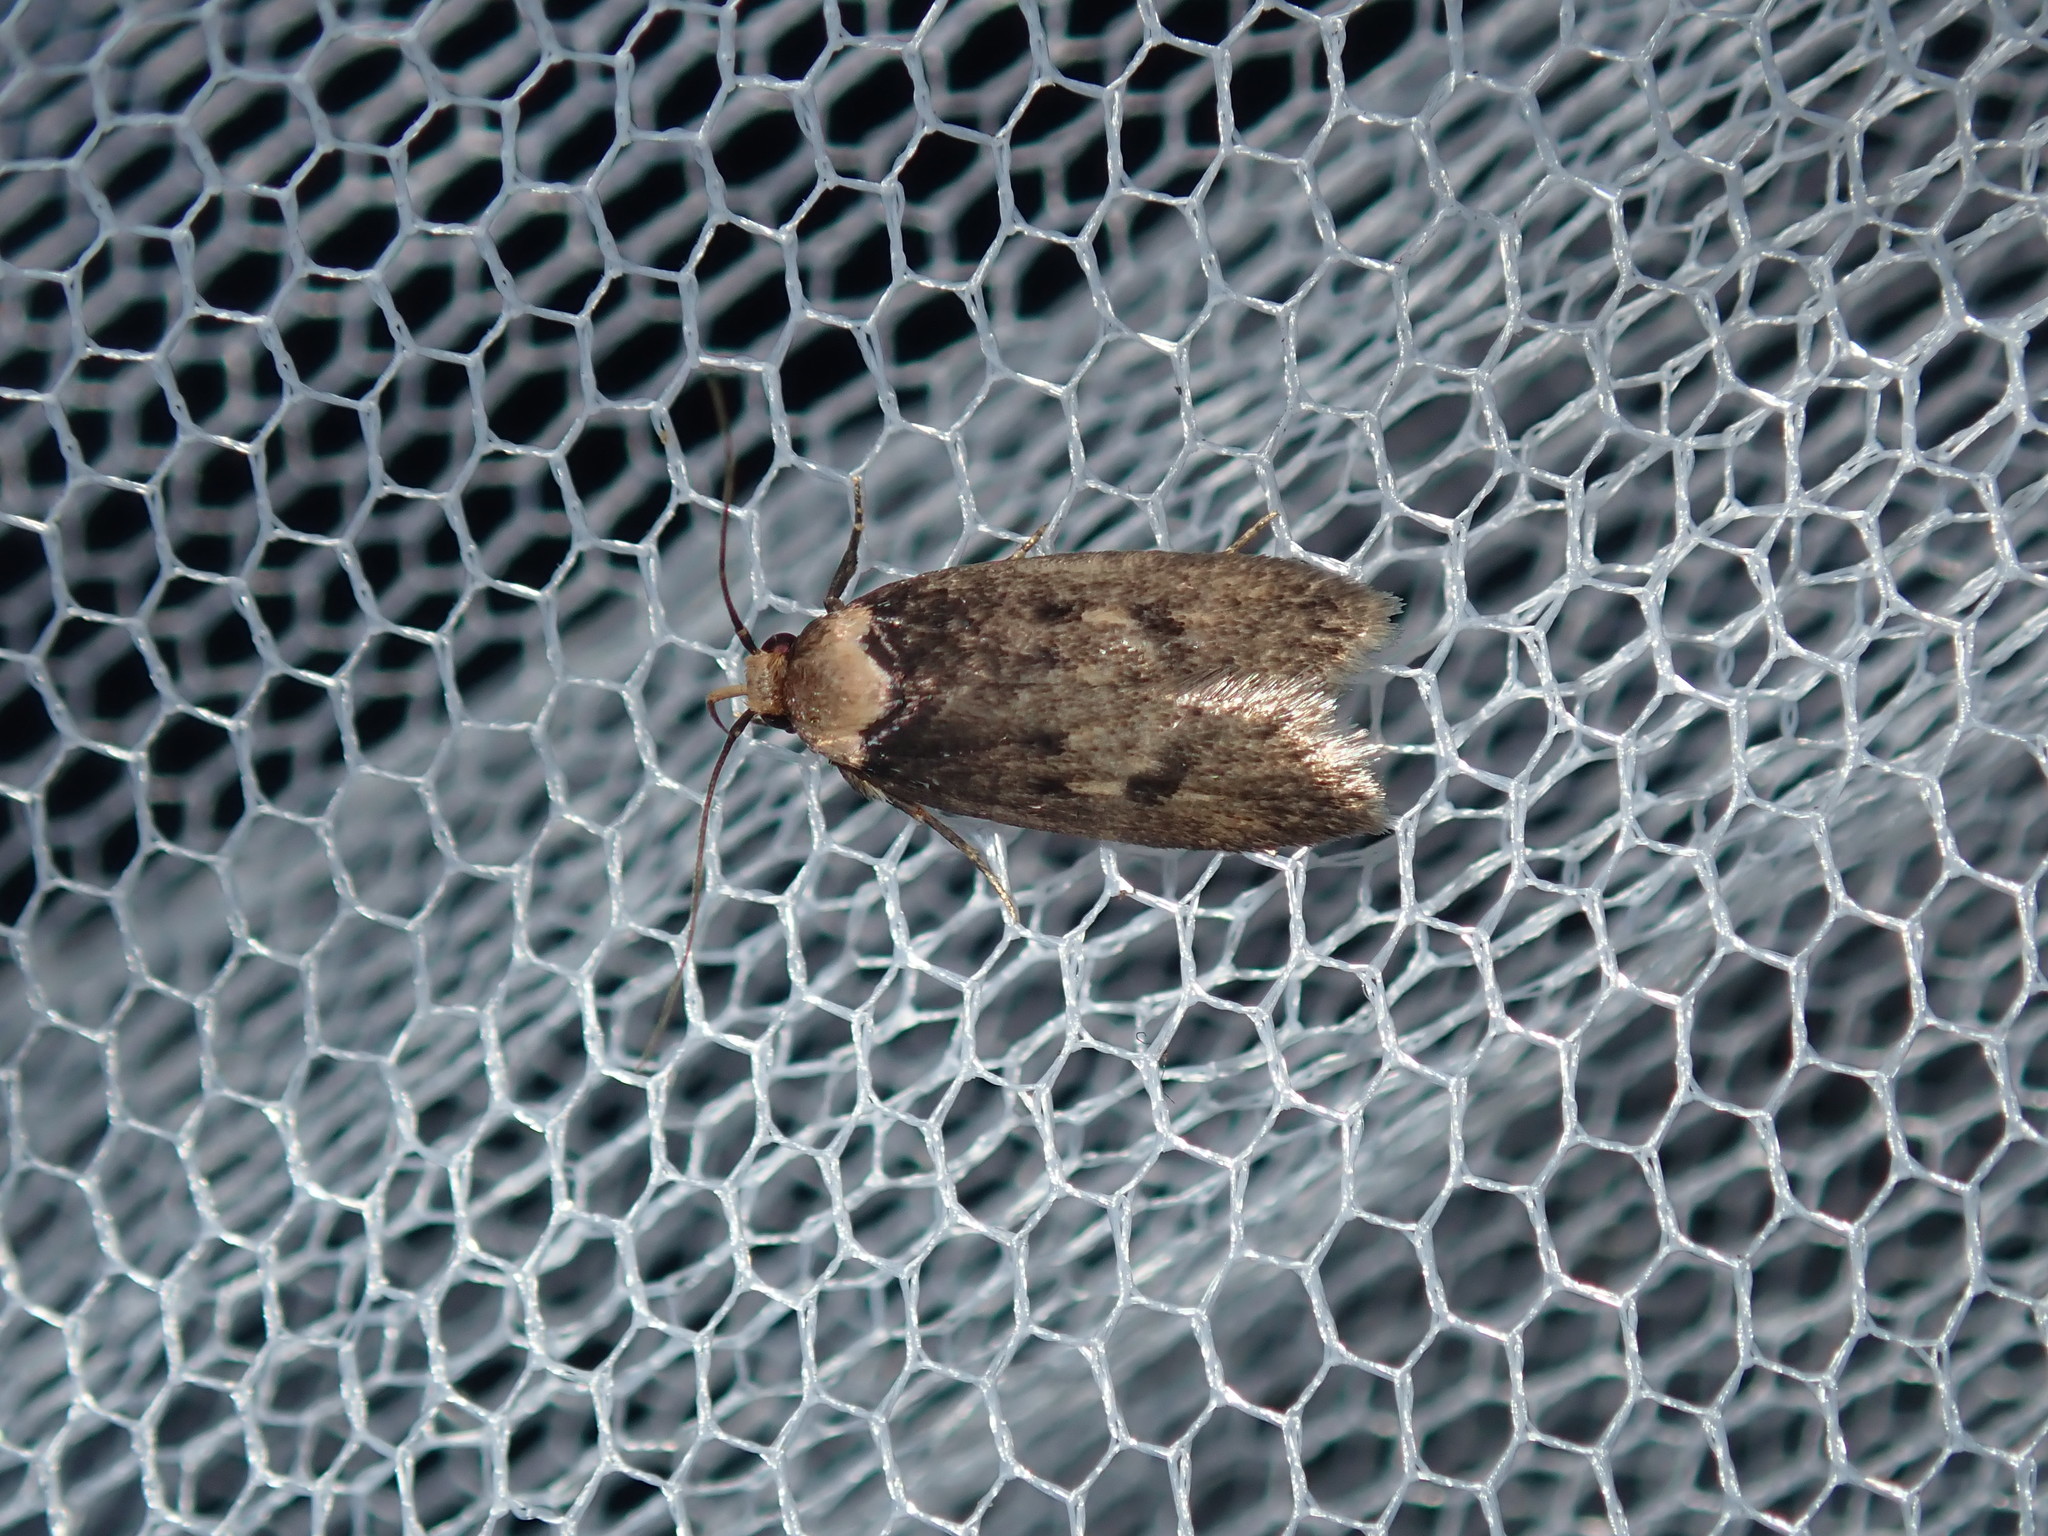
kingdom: Animalia
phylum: Arthropoda
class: Insecta
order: Lepidoptera
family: Oecophoridae
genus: Mimobrachyoma
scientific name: Mimobrachyoma maculifera
